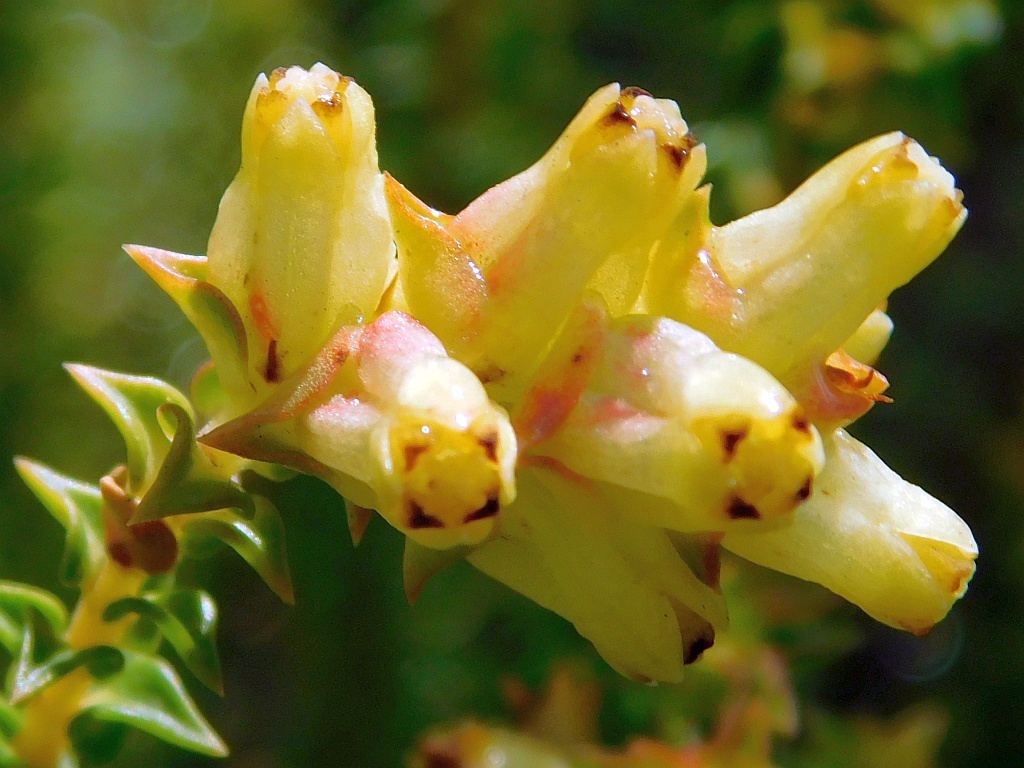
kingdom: Plantae
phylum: Tracheophyta
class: Magnoliopsida
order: Myrtales
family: Penaeaceae
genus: Penaea
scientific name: Penaea mucronata
